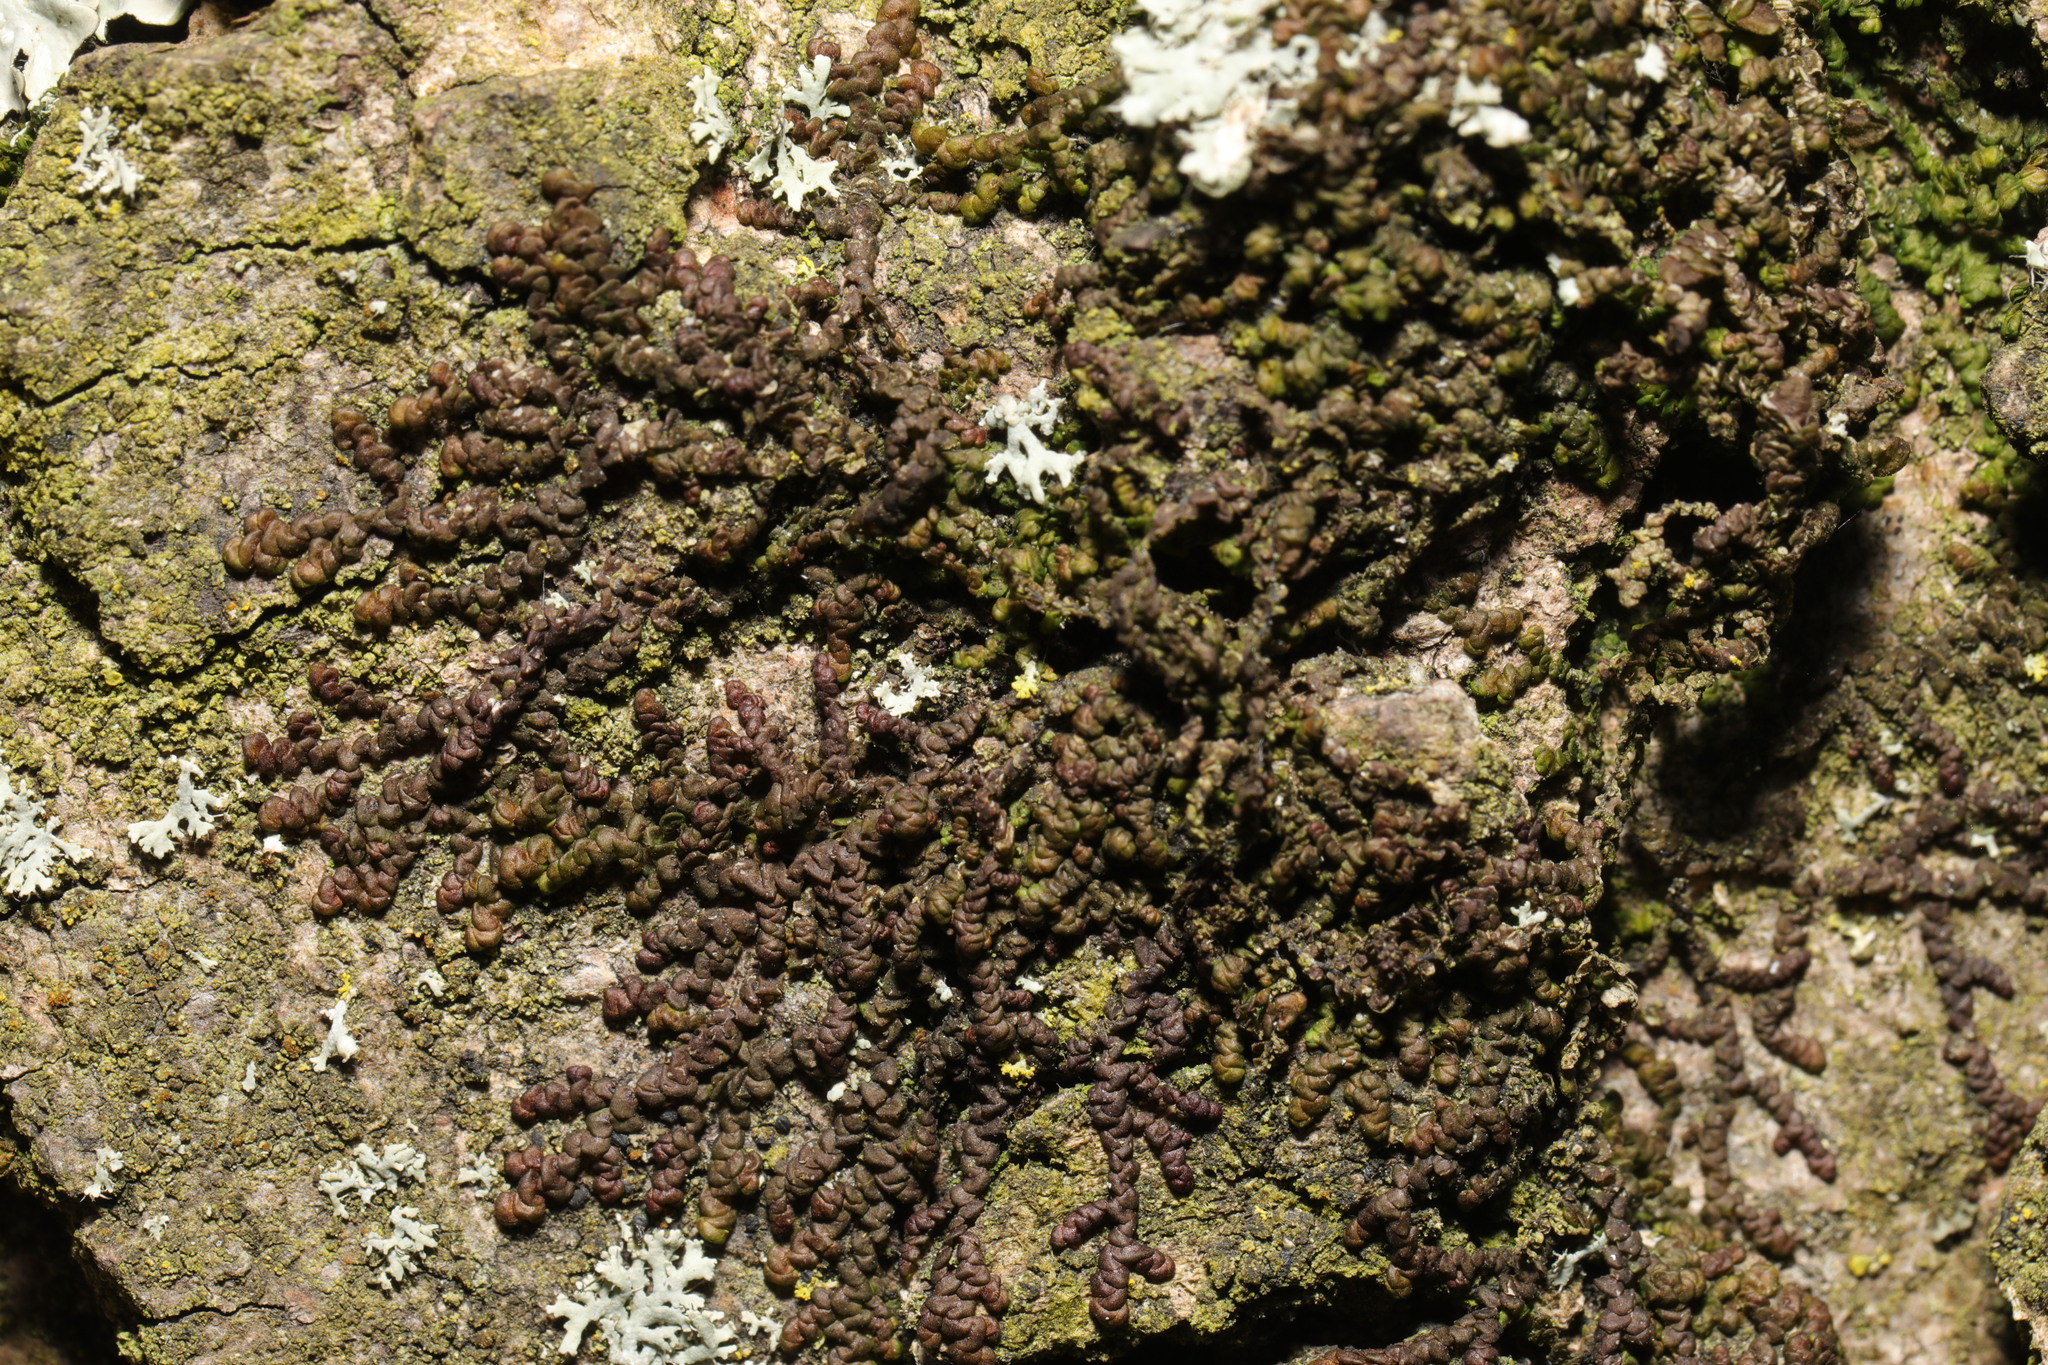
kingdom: Plantae
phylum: Marchantiophyta
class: Jungermanniopsida
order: Porellales
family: Frullaniaceae
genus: Frullania
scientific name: Frullania dilatata
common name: Dilated scalewort
